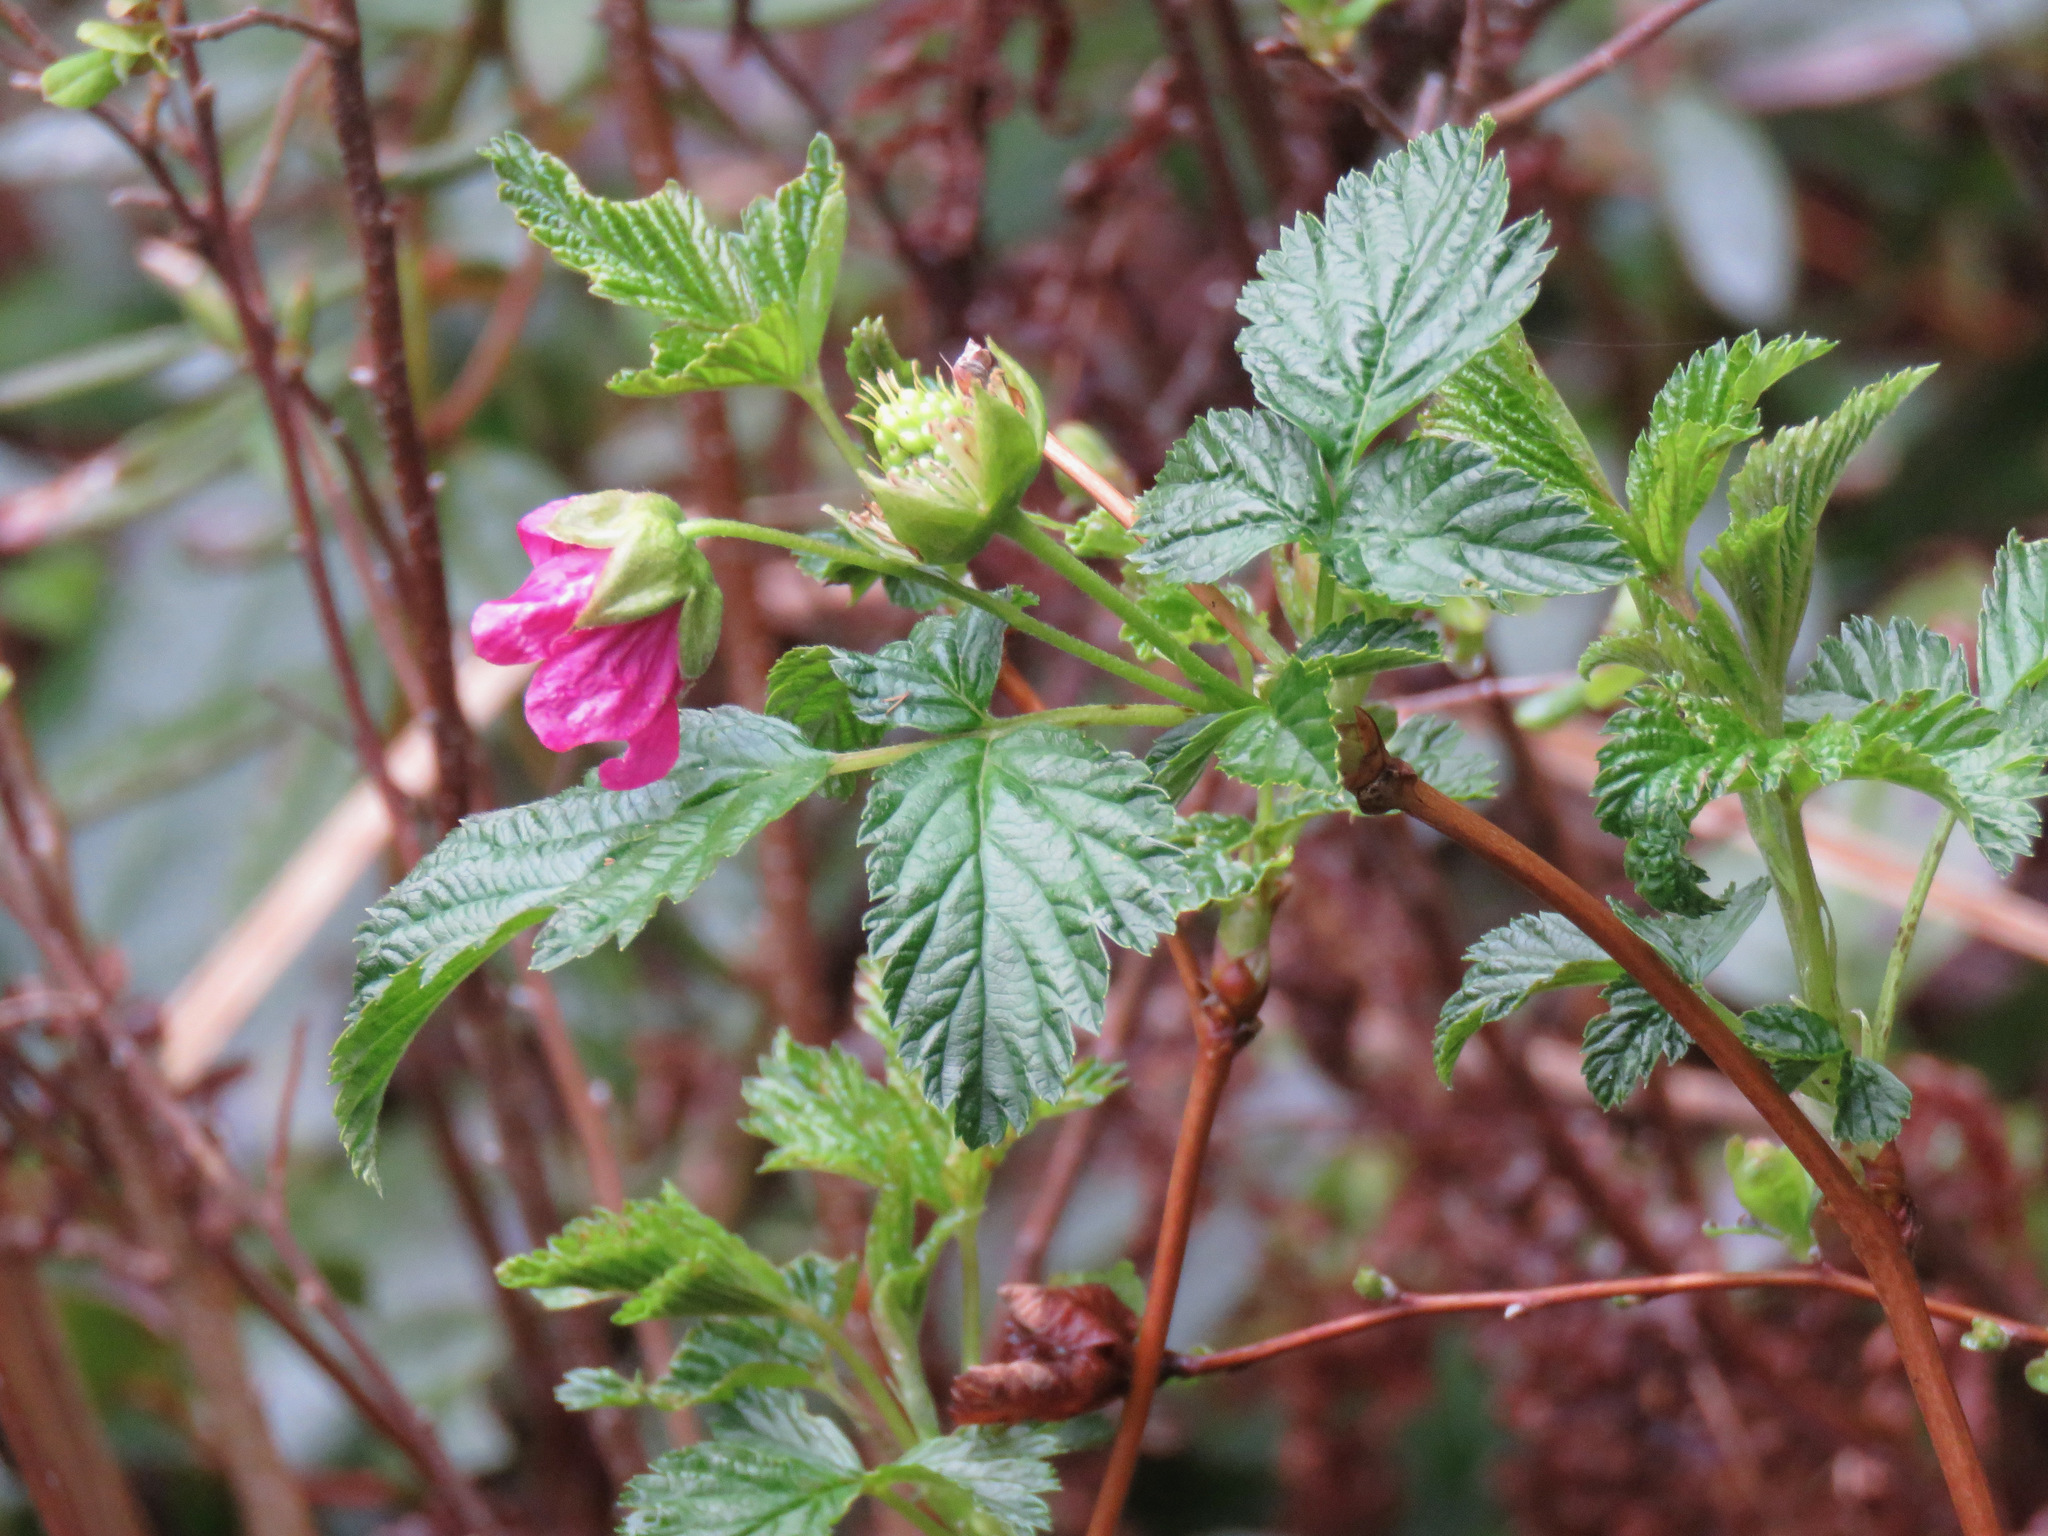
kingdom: Plantae
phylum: Tracheophyta
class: Magnoliopsida
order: Rosales
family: Rosaceae
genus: Rubus
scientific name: Rubus spectabilis
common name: Salmonberry
